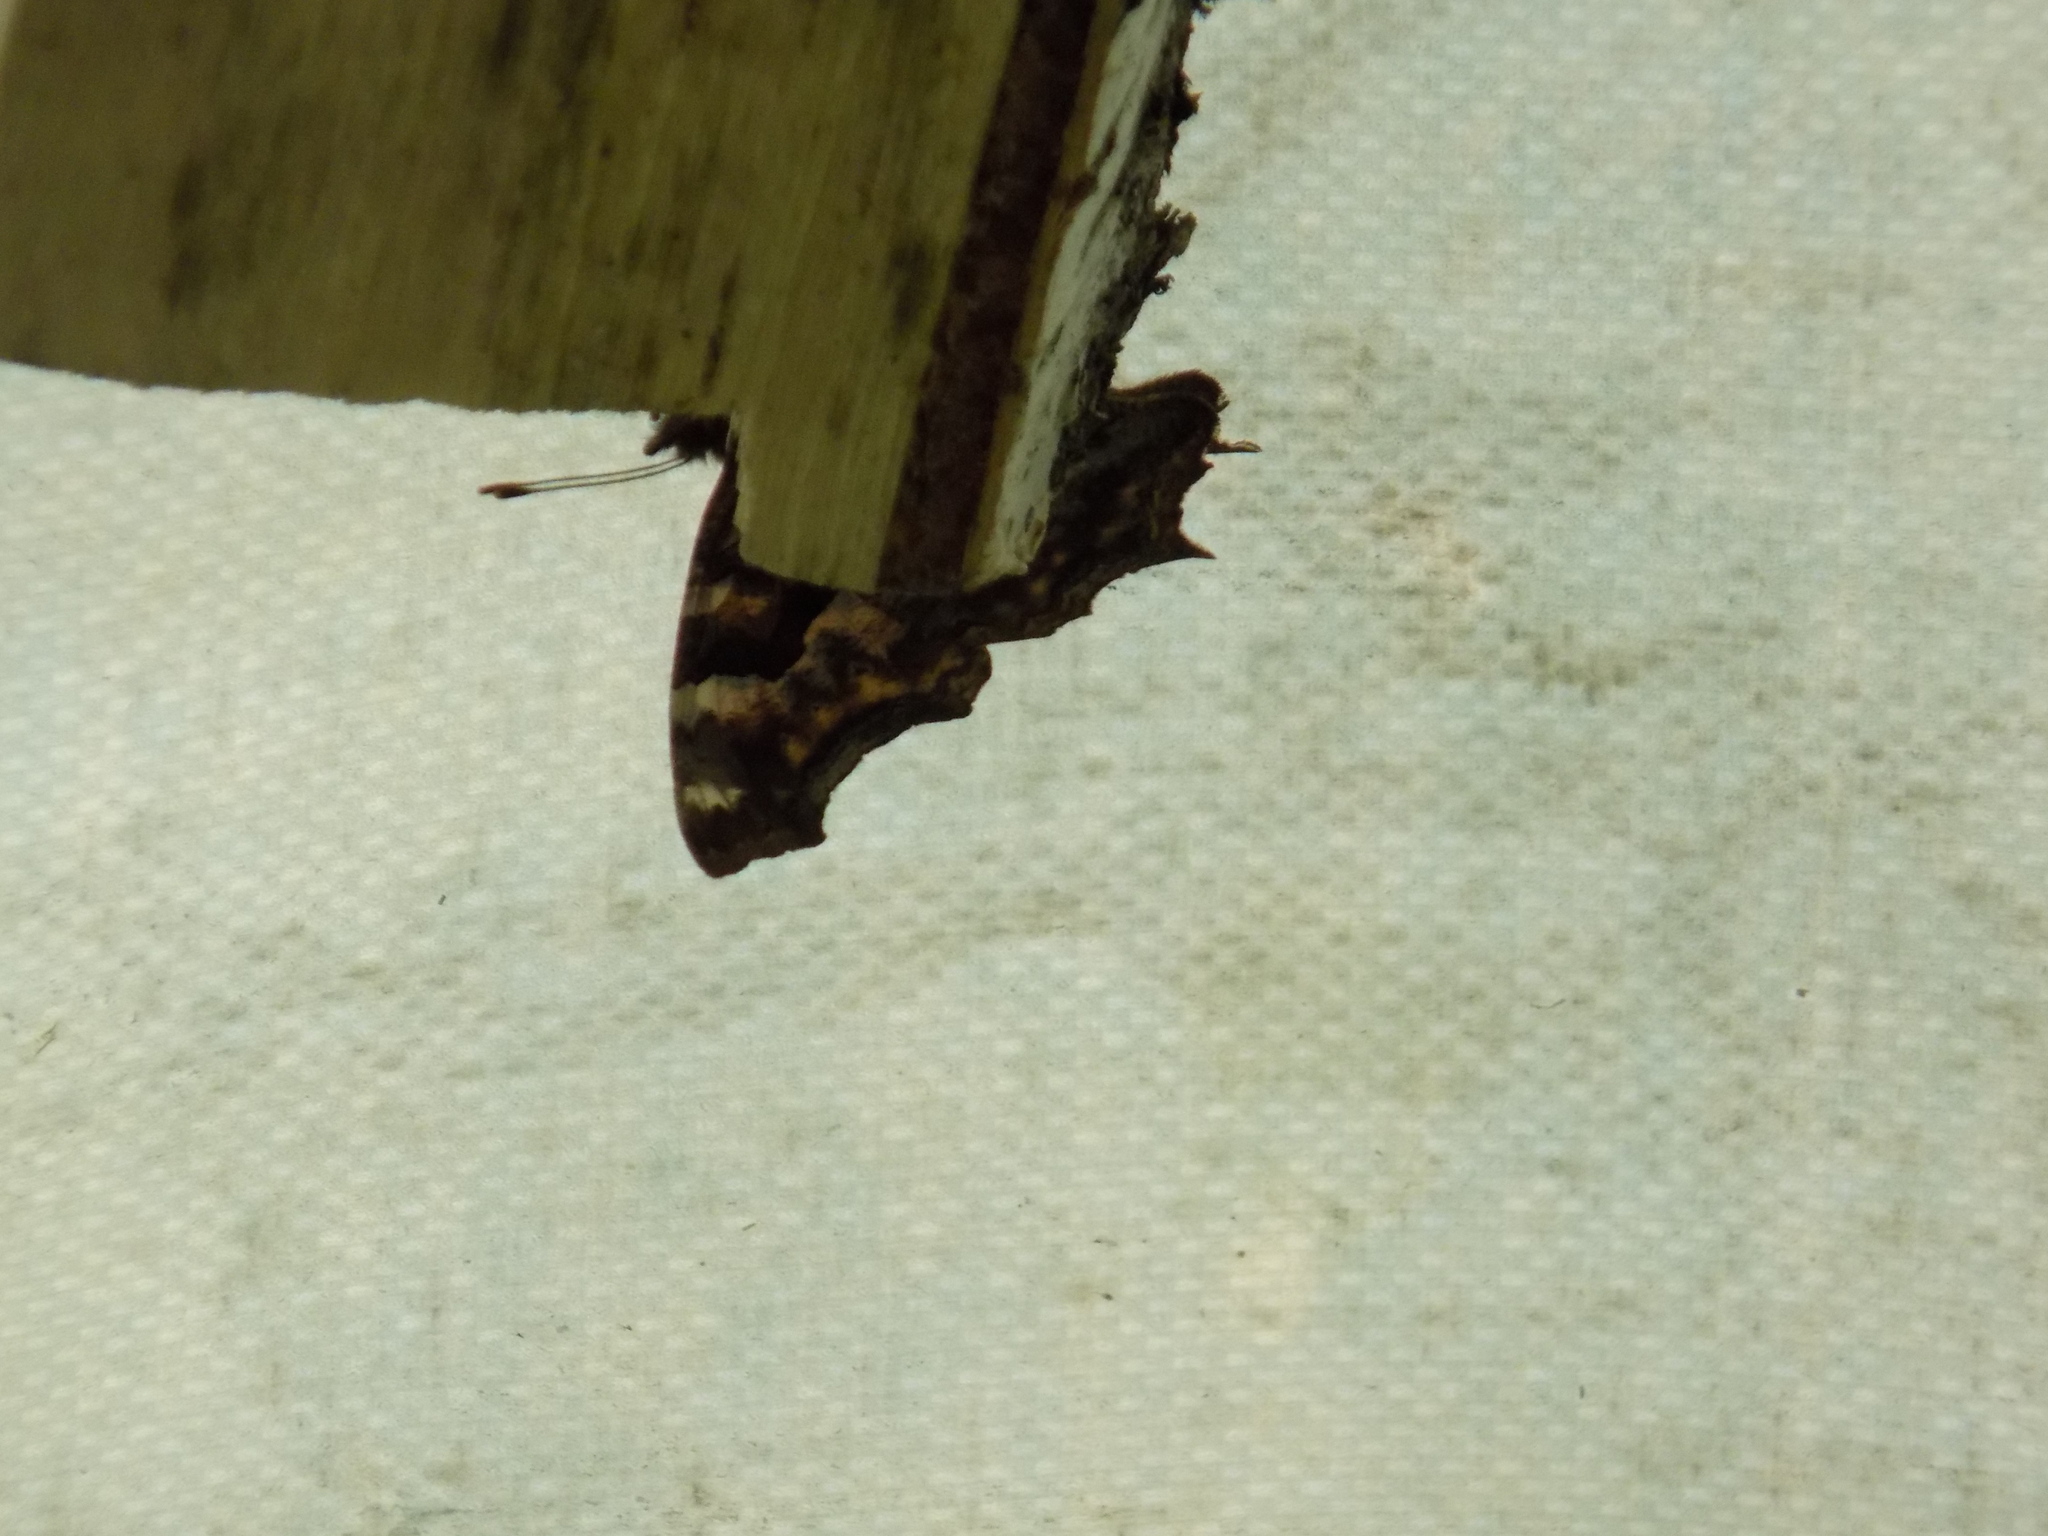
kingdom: Animalia
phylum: Arthropoda
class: Insecta
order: Lepidoptera
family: Nymphalidae
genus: Polygonia
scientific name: Polygonia vaualbum
